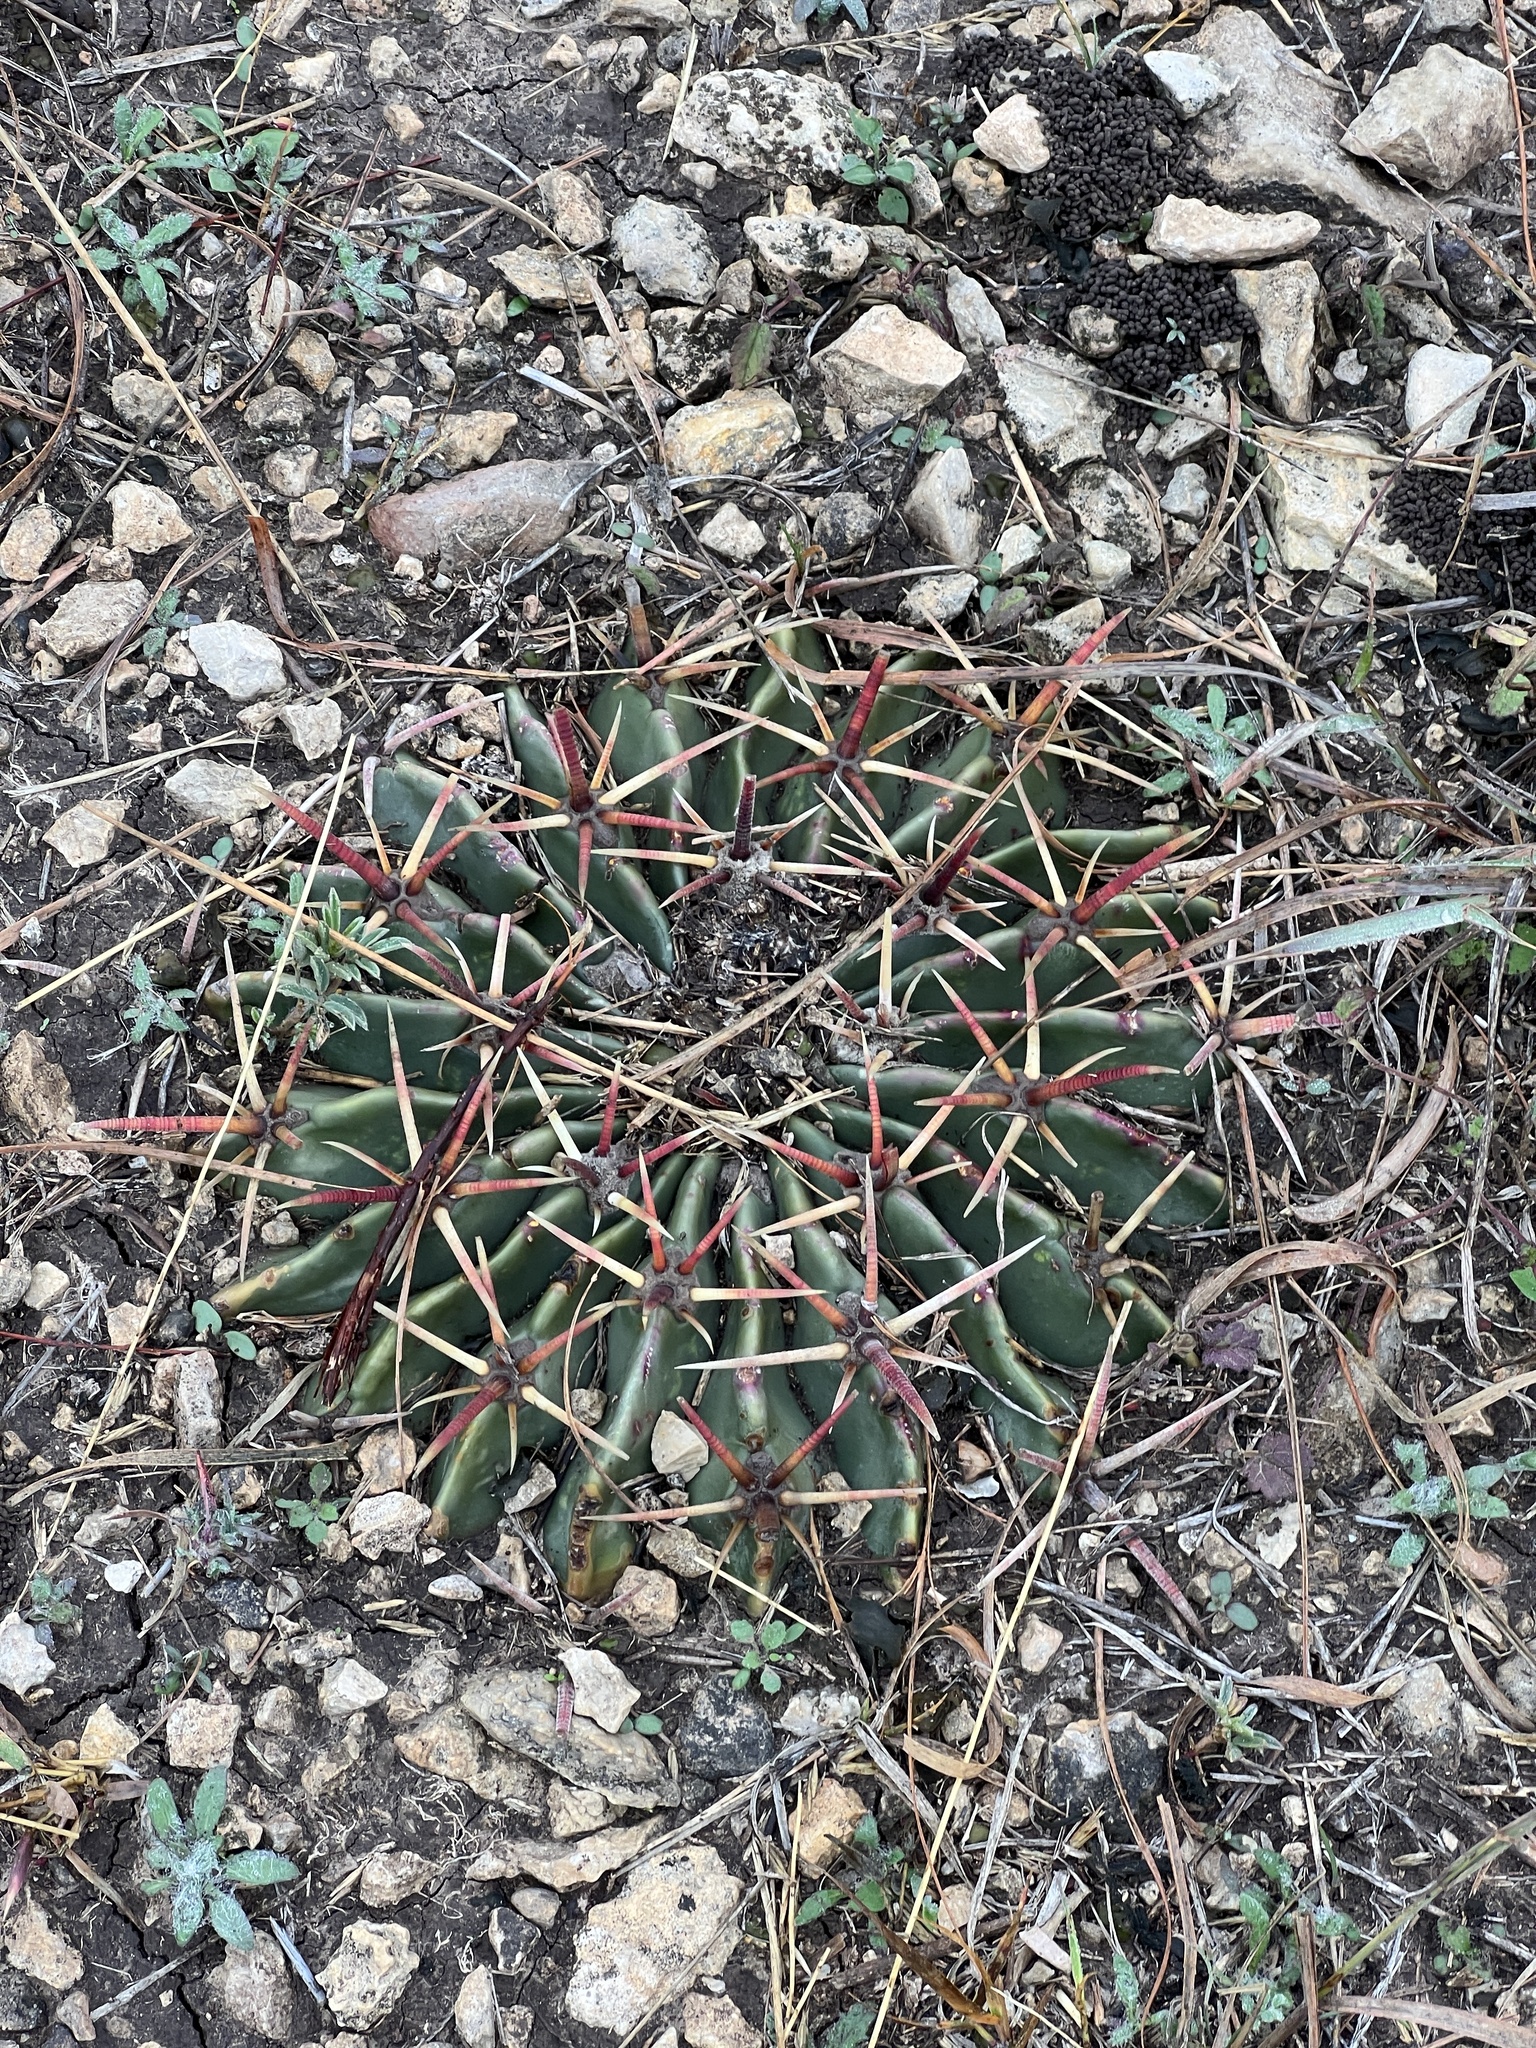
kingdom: Plantae
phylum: Tracheophyta
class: Magnoliopsida
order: Caryophyllales
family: Cactaceae
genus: Echinocactus
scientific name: Echinocactus texensis
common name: Devil's pincushion
